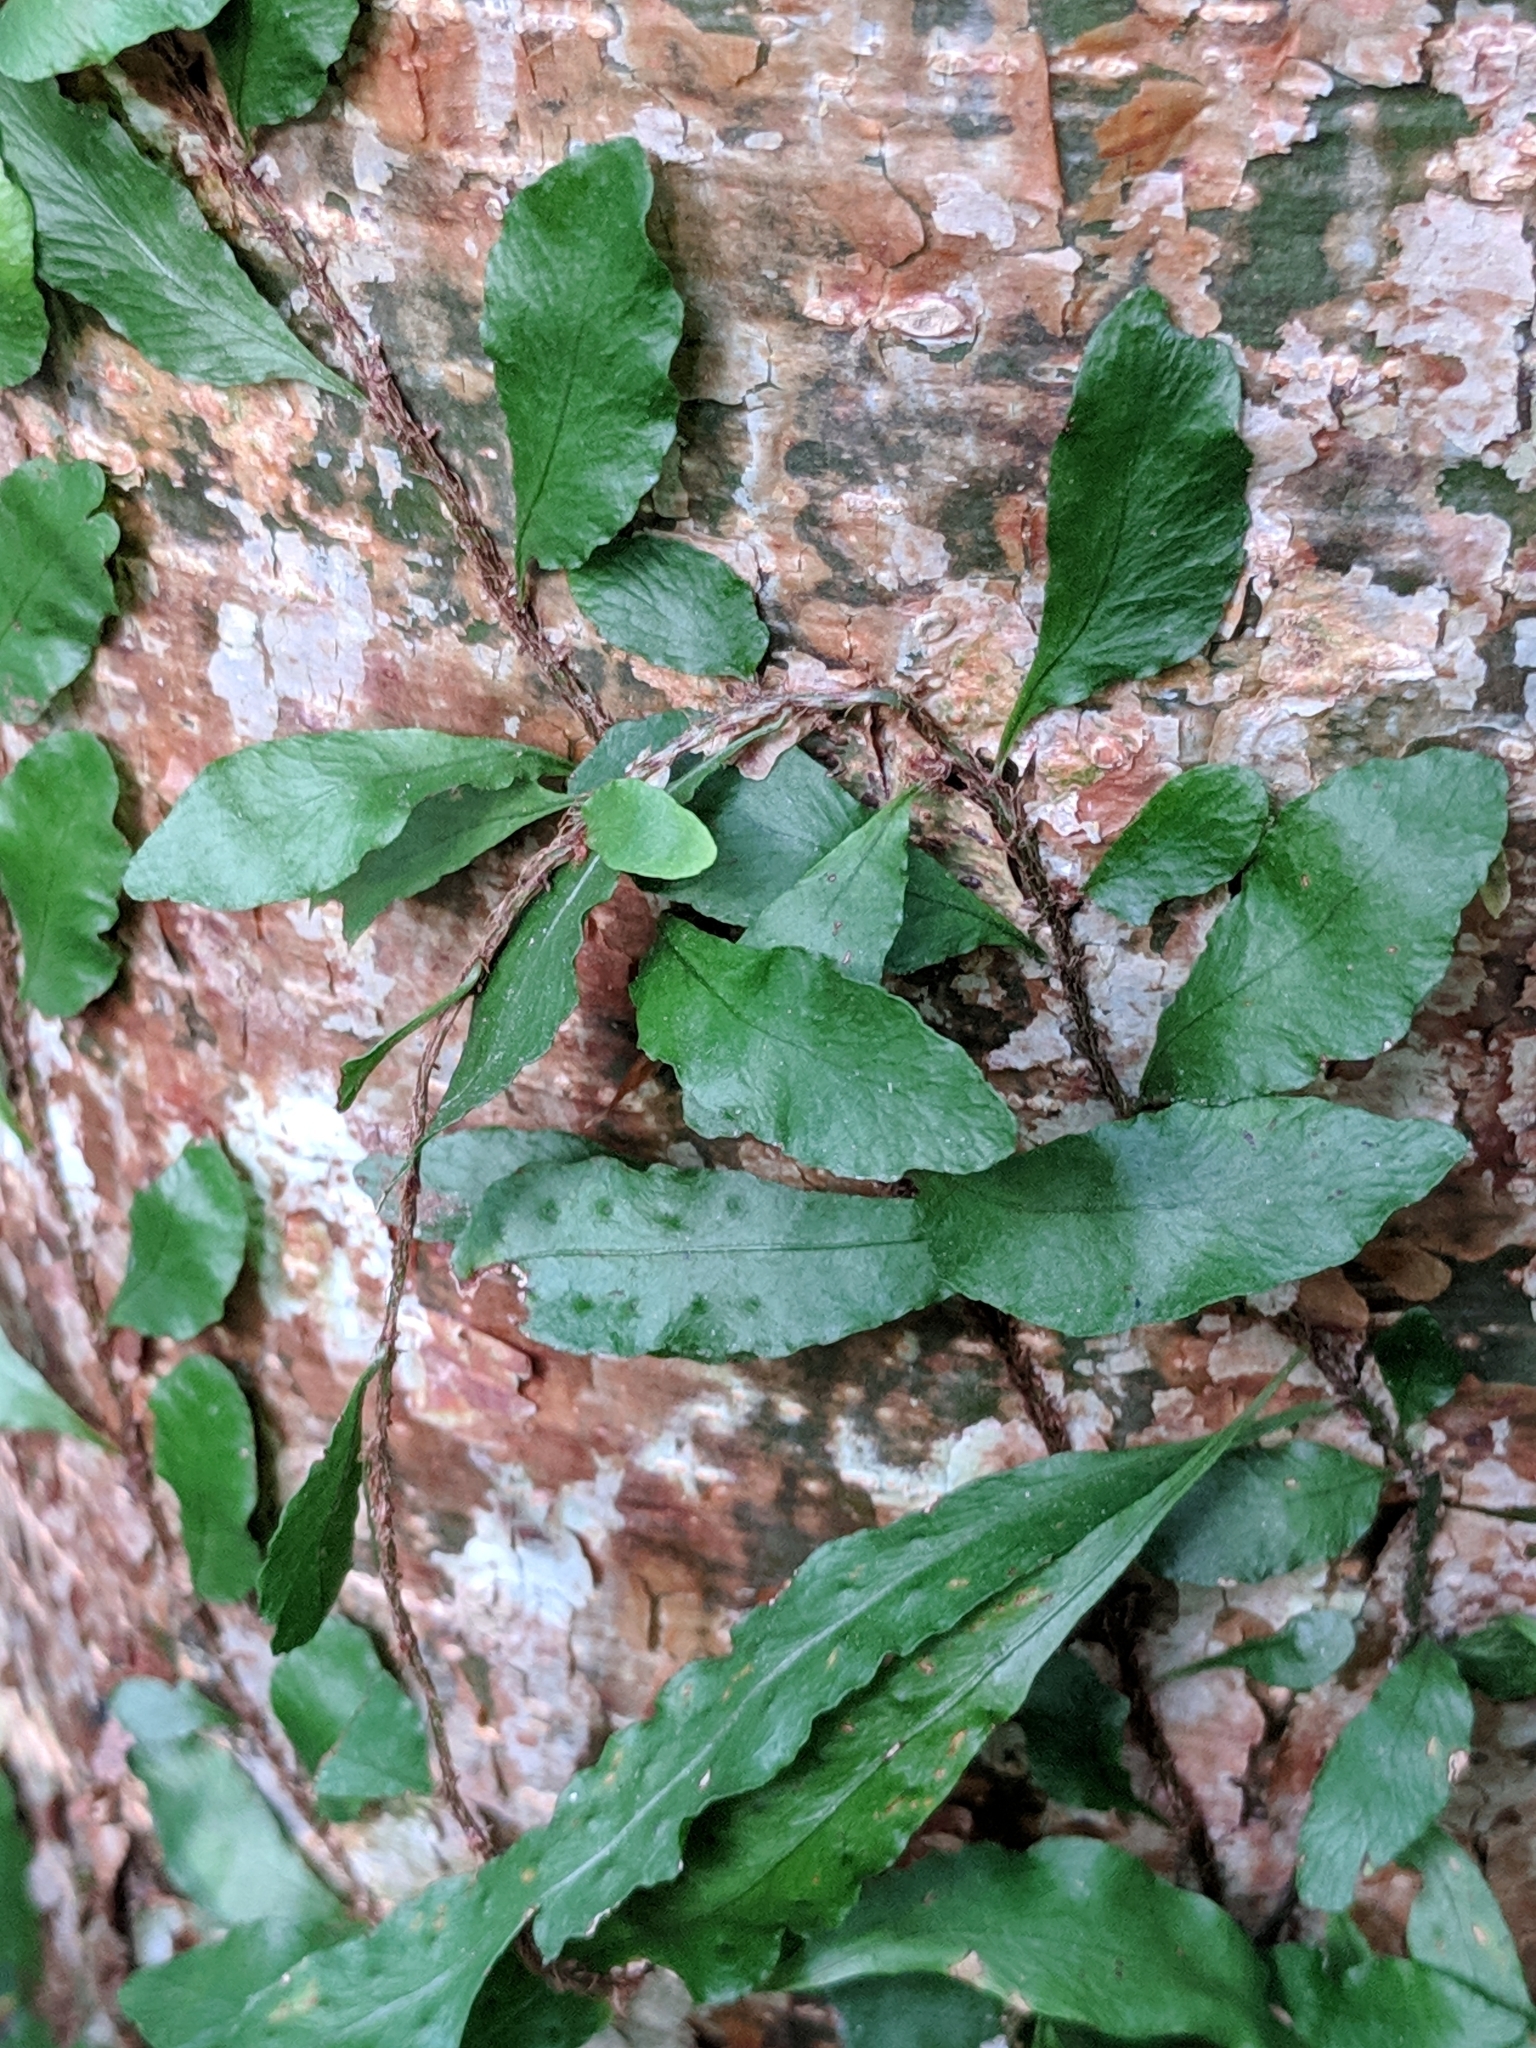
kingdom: Plantae
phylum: Tracheophyta
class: Polypodiopsida
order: Polypodiales
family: Polypodiaceae
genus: Microgramma
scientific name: Microgramma heterophylla
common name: Clinging snakefern
